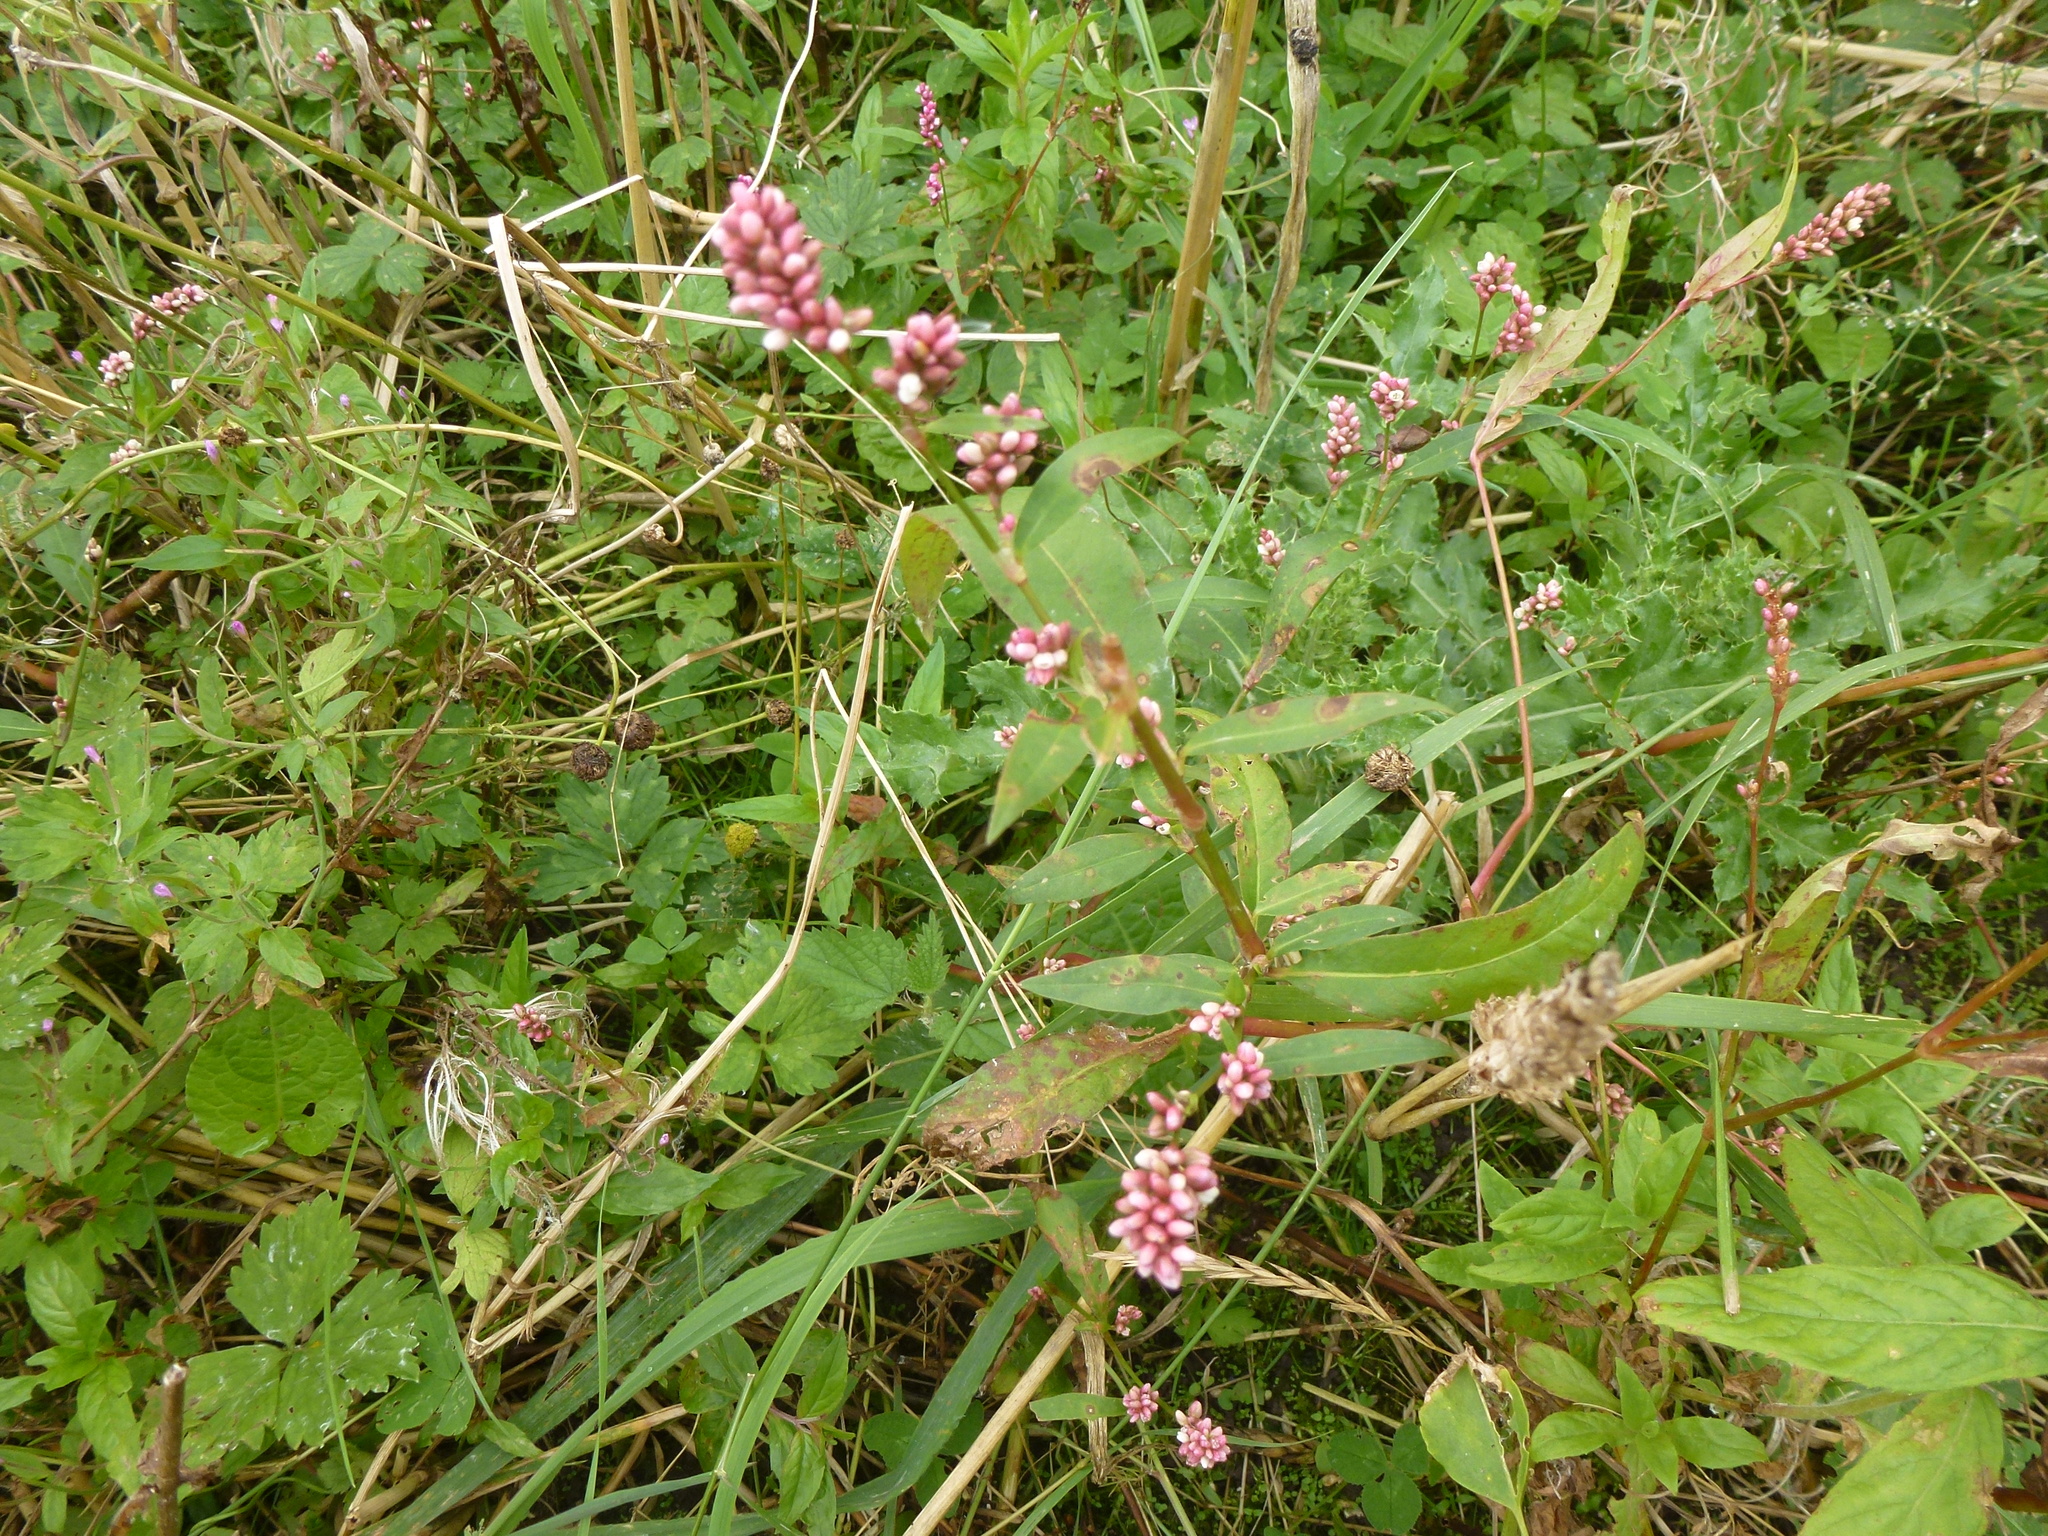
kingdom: Plantae
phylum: Tracheophyta
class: Magnoliopsida
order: Caryophyllales
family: Polygonaceae
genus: Persicaria
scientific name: Persicaria maculosa
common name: Redshank
